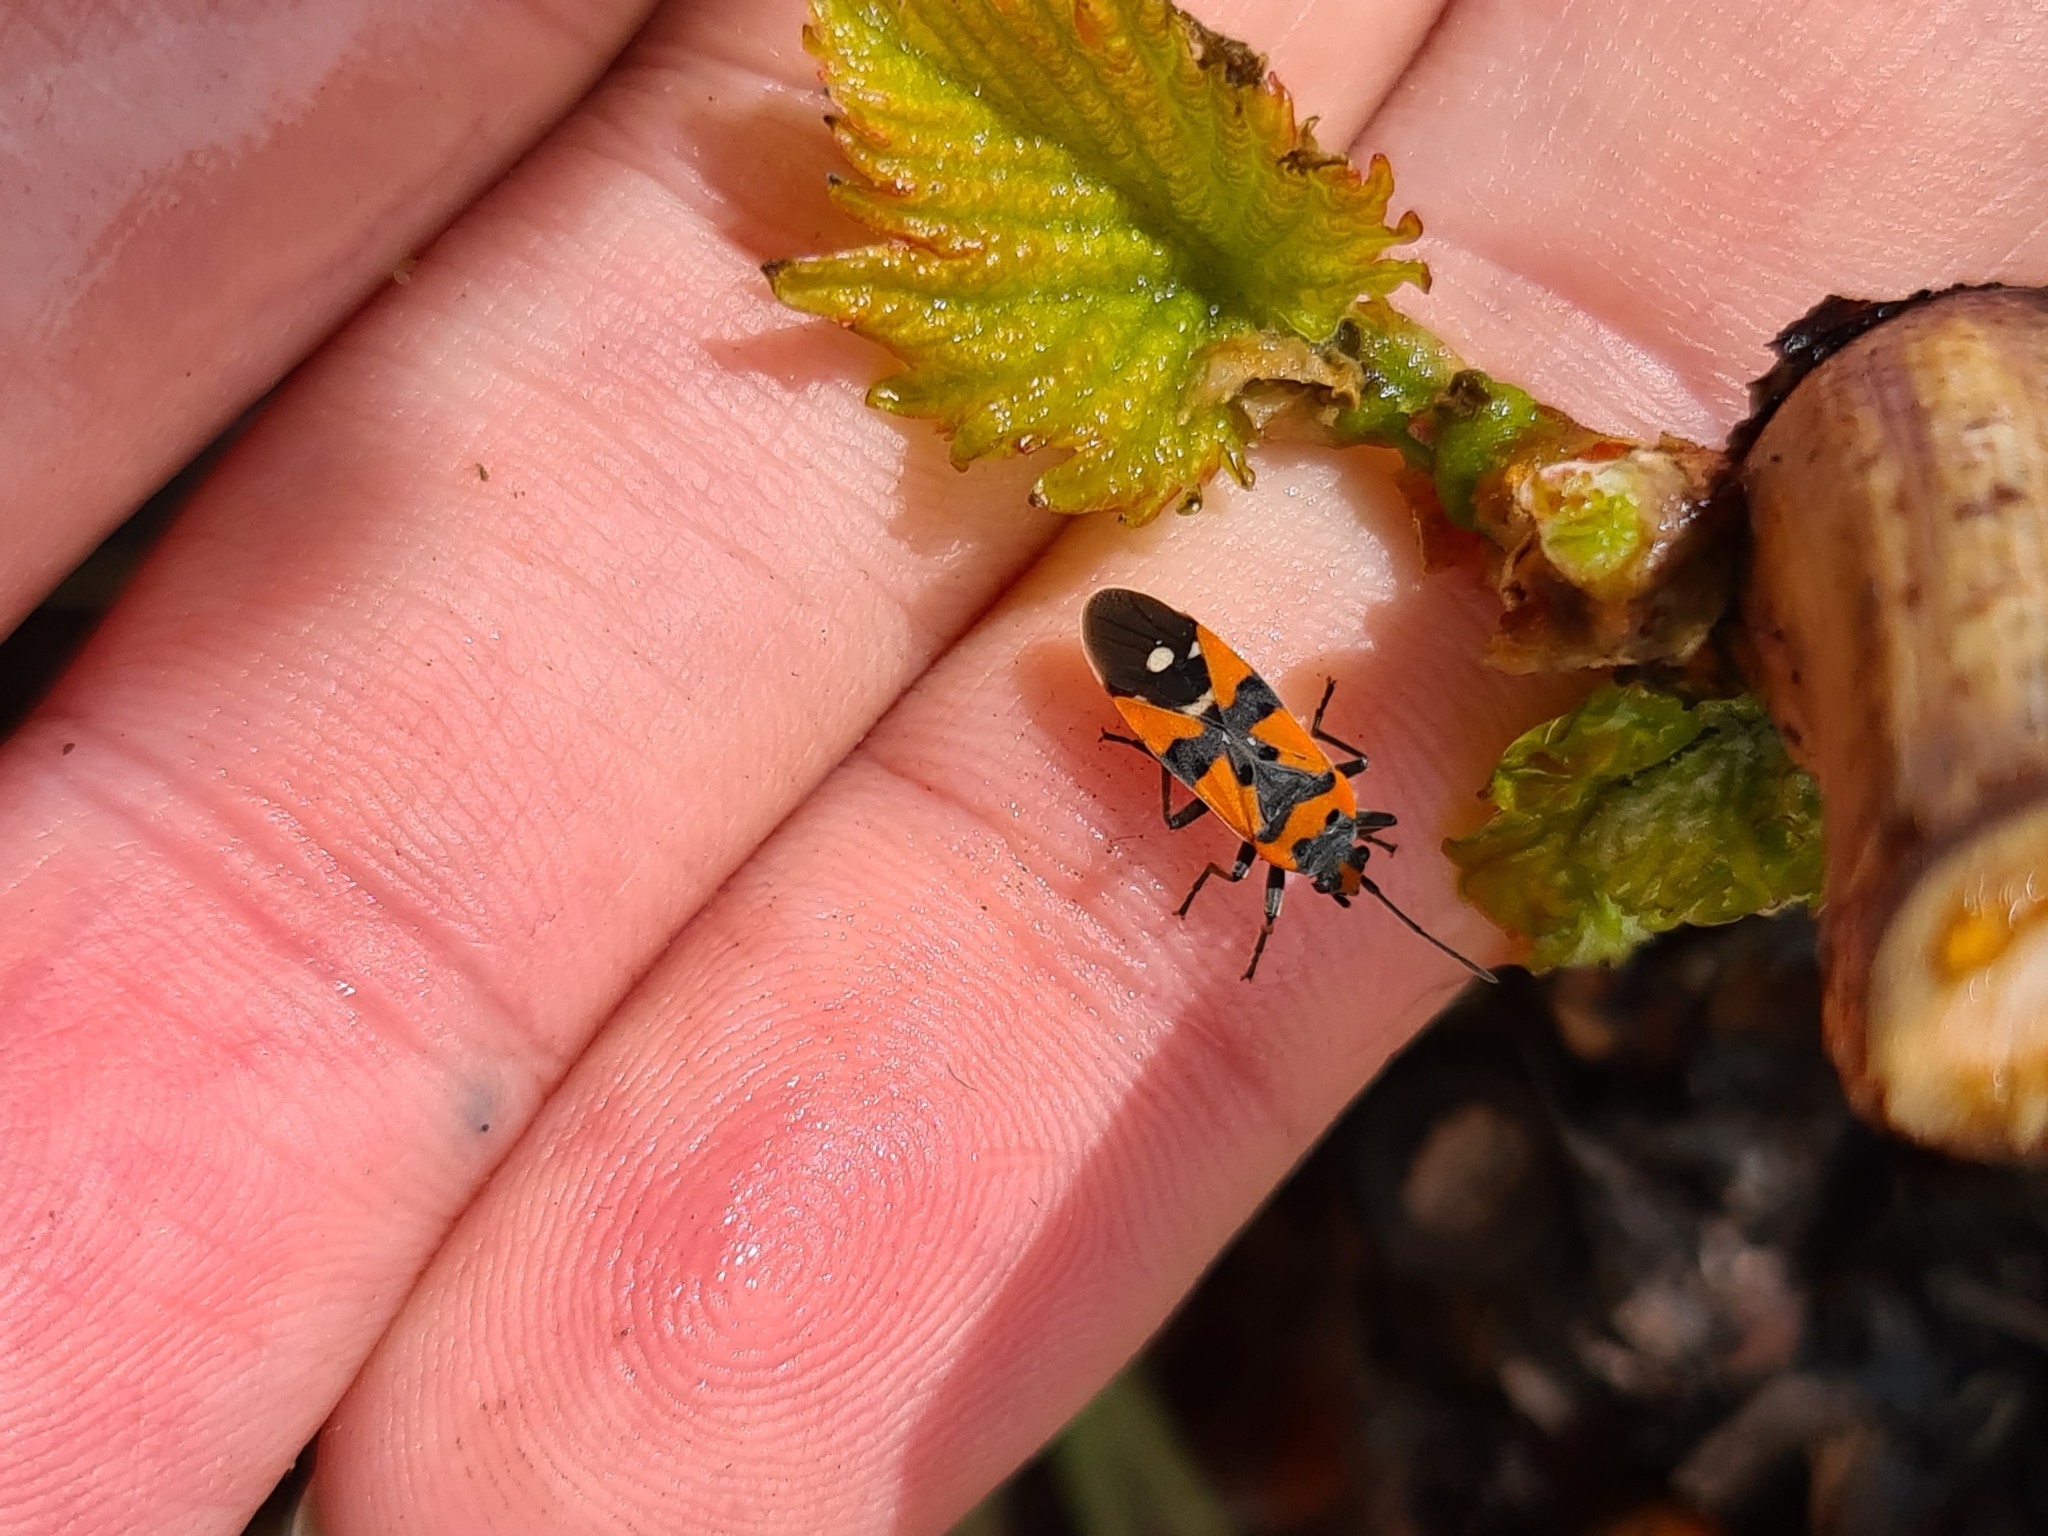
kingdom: Animalia
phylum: Arthropoda
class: Insecta
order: Hemiptera
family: Lygaeidae
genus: Lygaeus
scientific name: Lygaeus equestris
